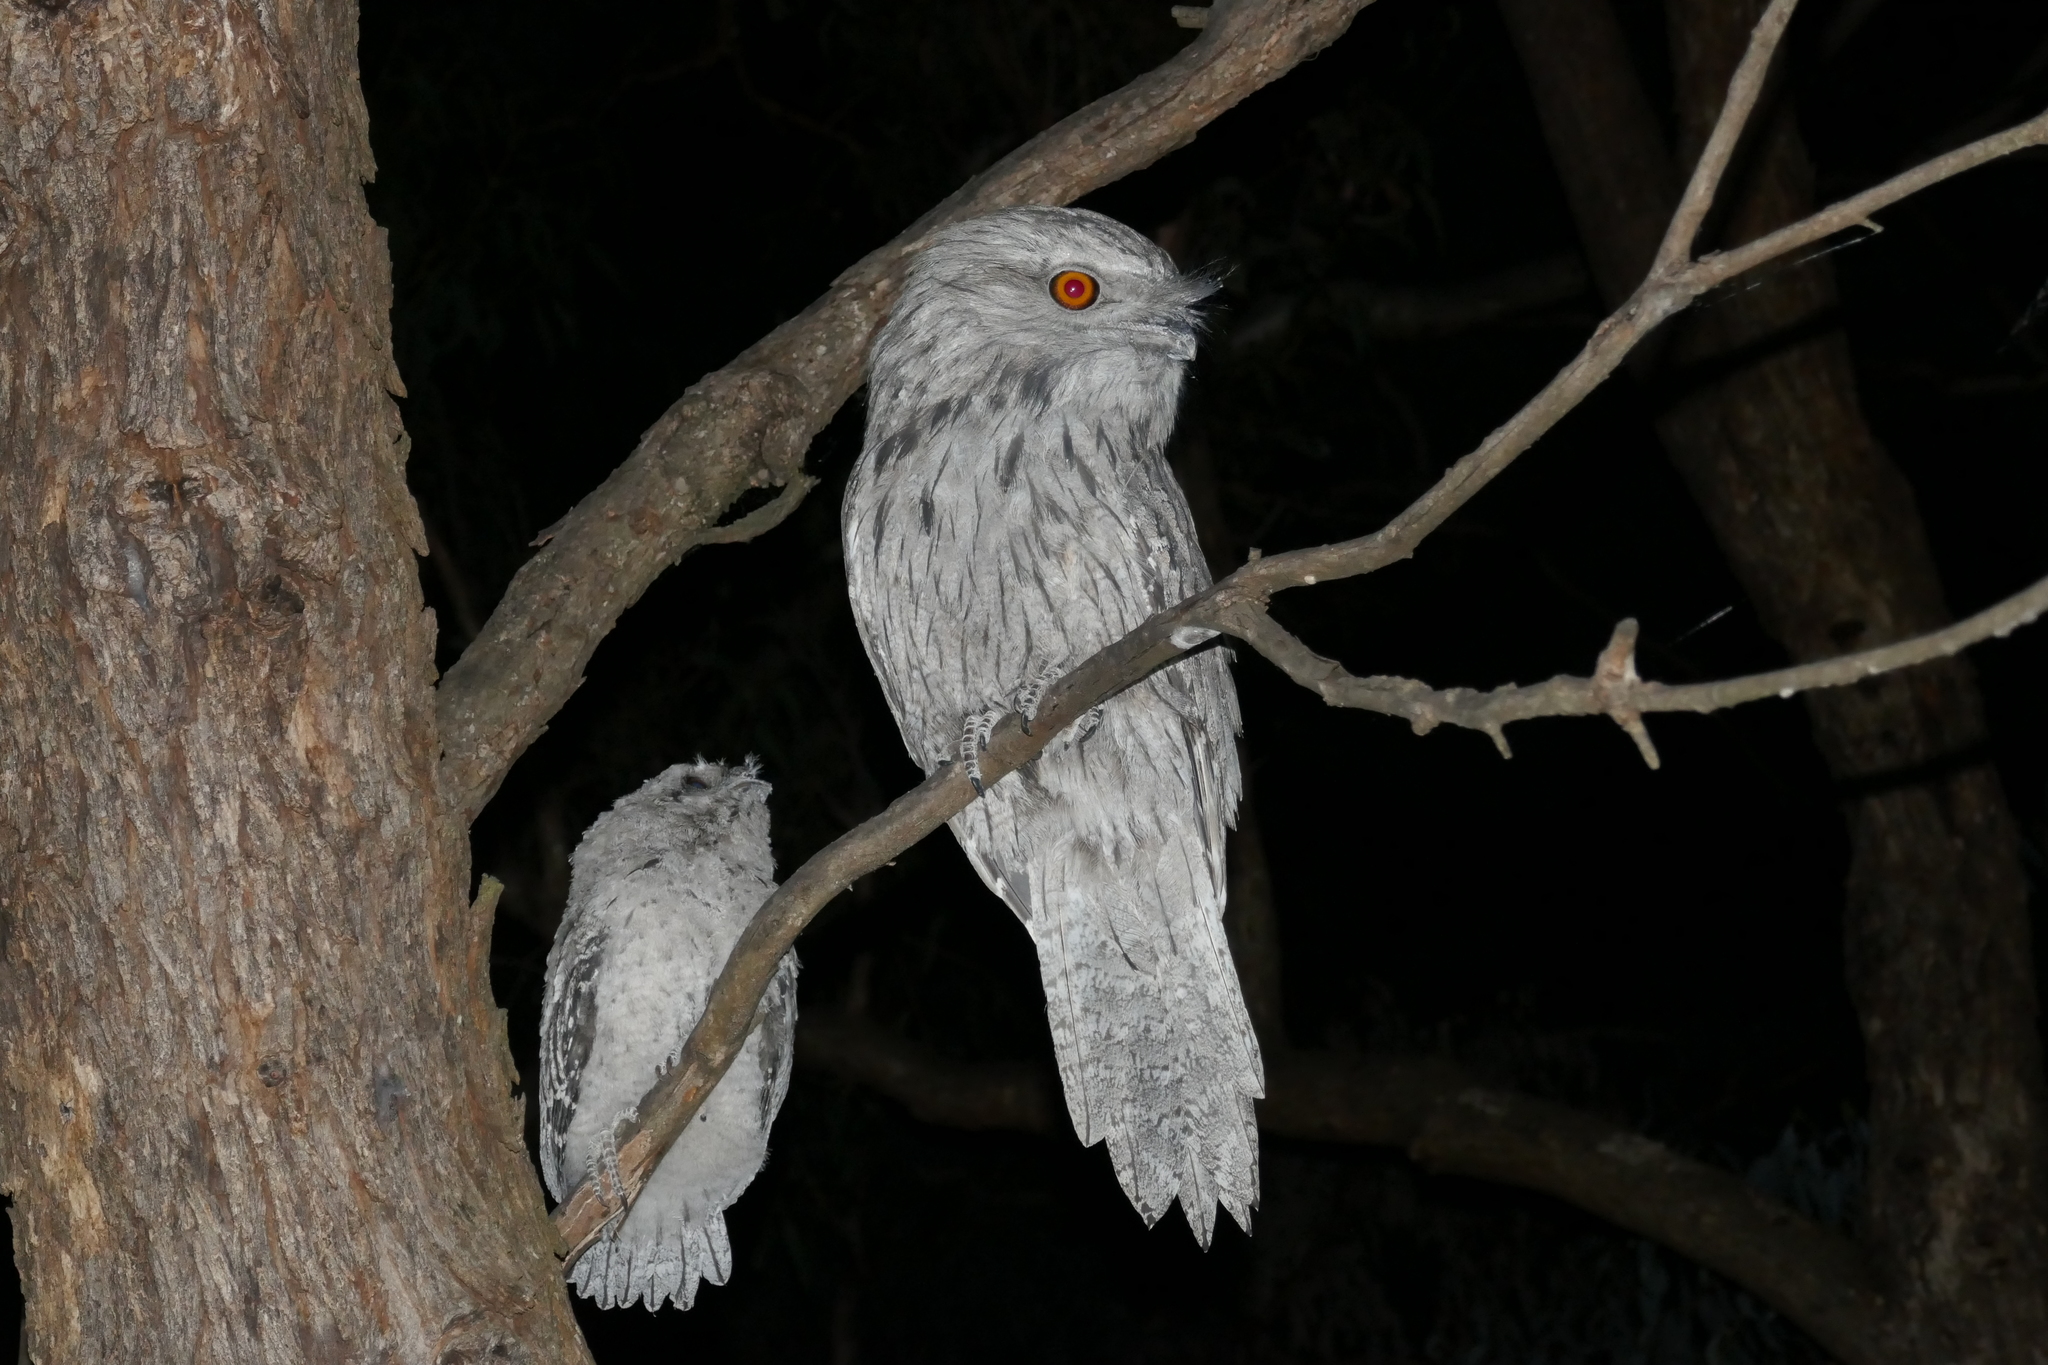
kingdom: Animalia
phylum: Chordata
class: Aves
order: Caprimulgiformes
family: Podargidae
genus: Podargus
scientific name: Podargus strigoides
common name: Tawny frogmouth
